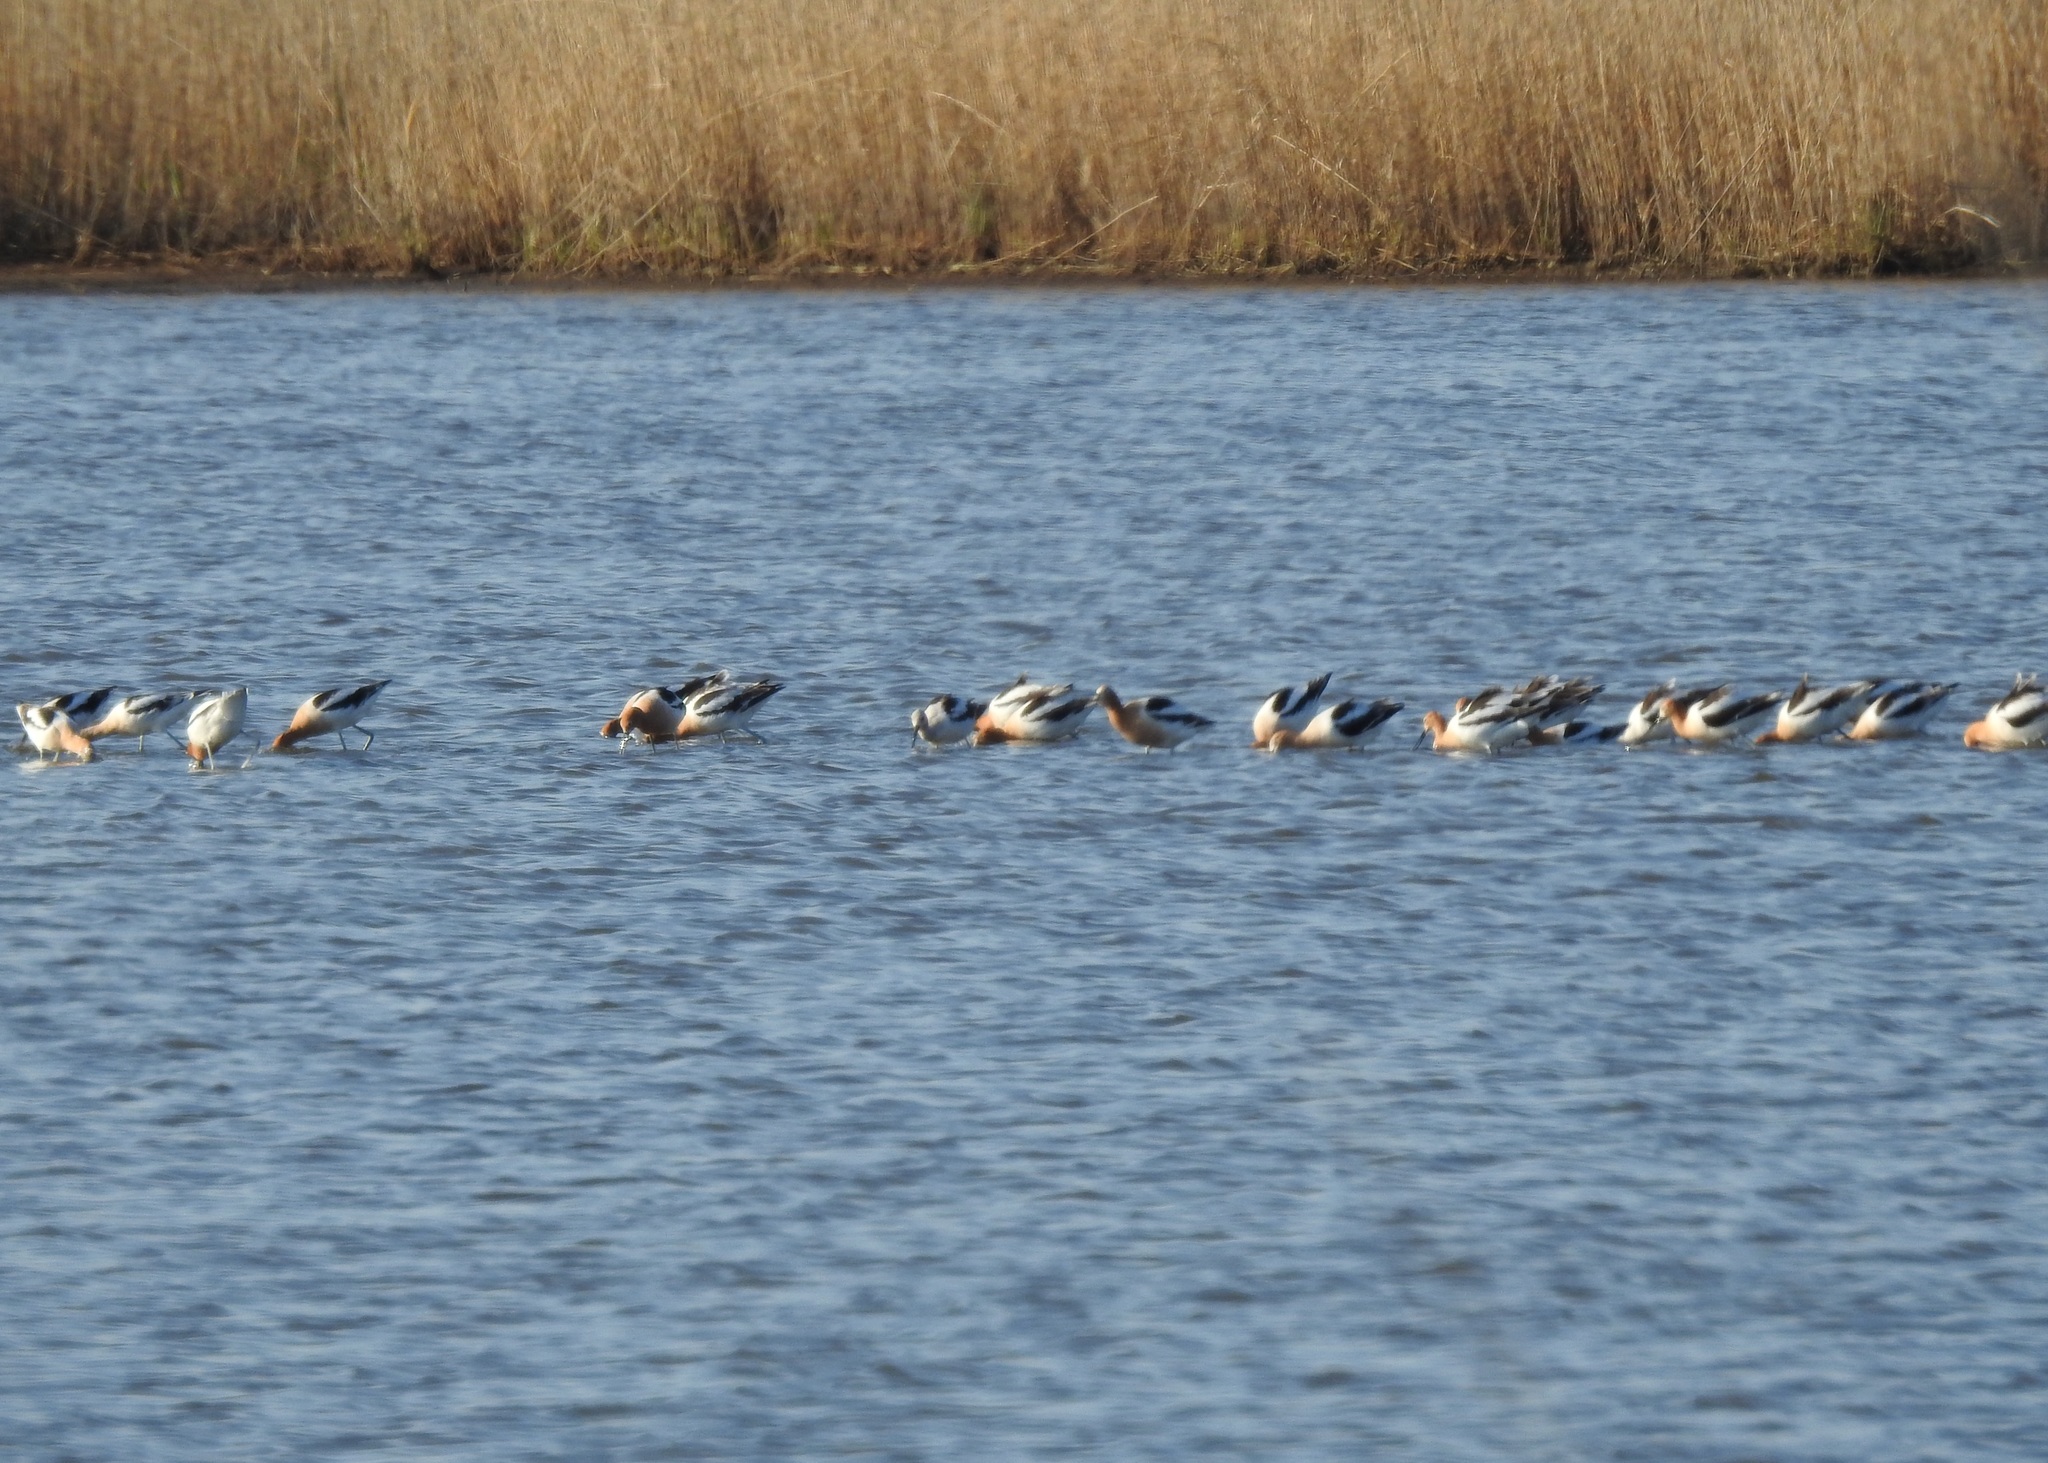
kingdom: Animalia
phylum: Chordata
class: Aves
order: Charadriiformes
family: Recurvirostridae
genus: Recurvirostra
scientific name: Recurvirostra americana
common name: American avocet
